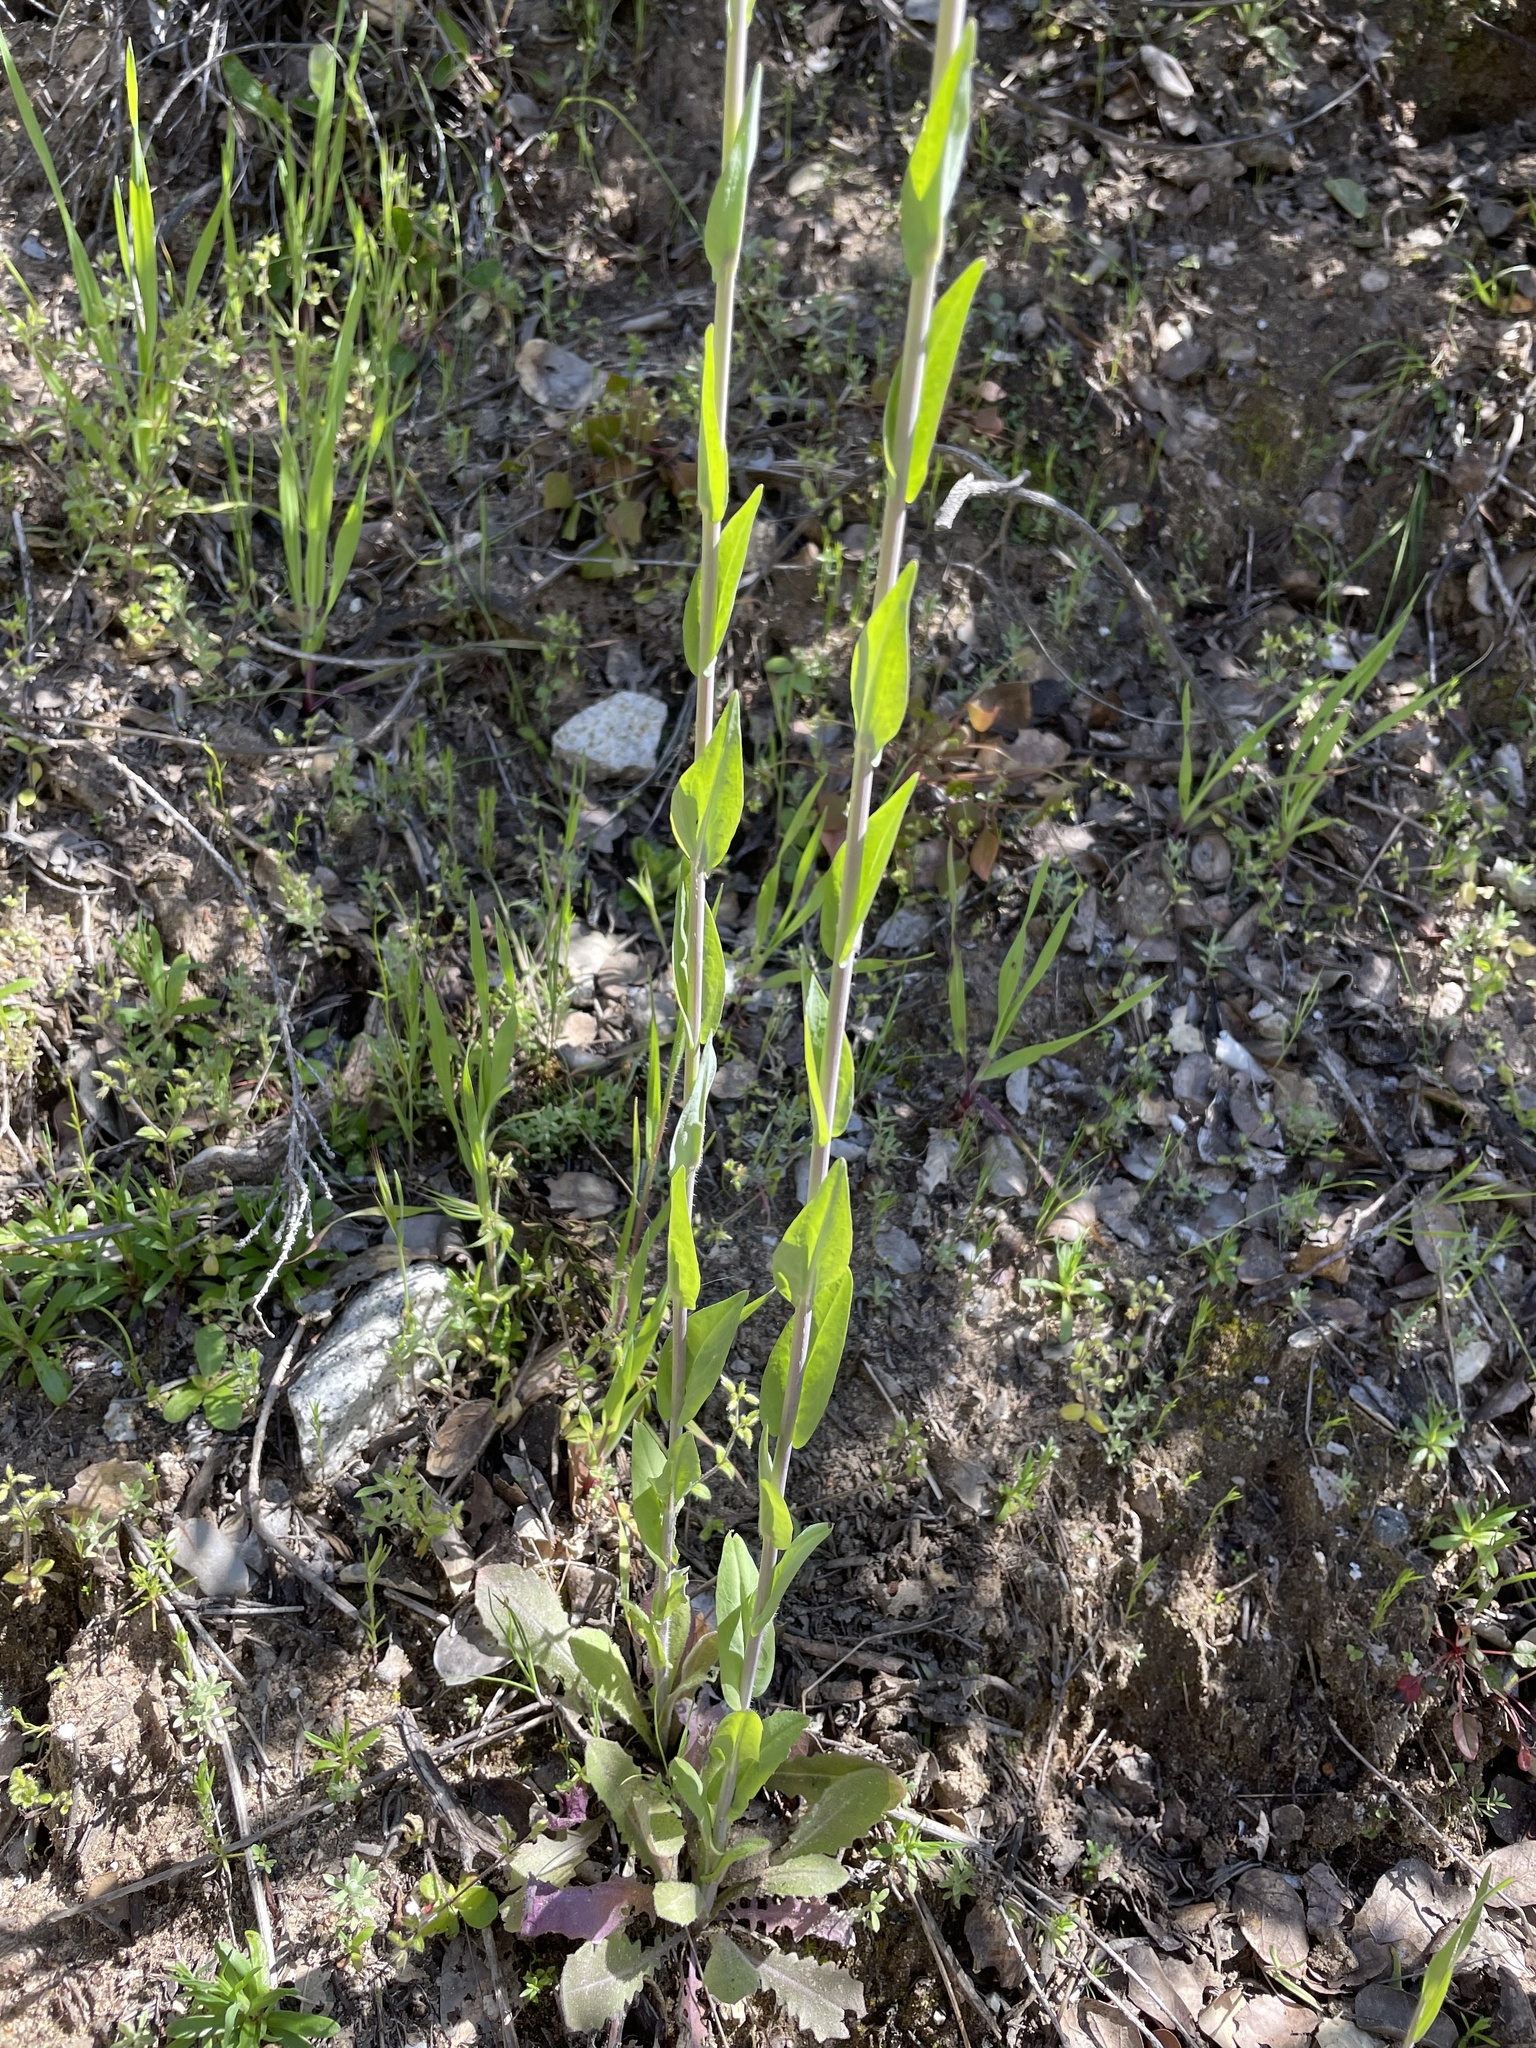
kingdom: Plantae
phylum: Tracheophyta
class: Magnoliopsida
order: Brassicales
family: Brassicaceae
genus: Turritis
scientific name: Turritis glabra
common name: Tower rockcress
